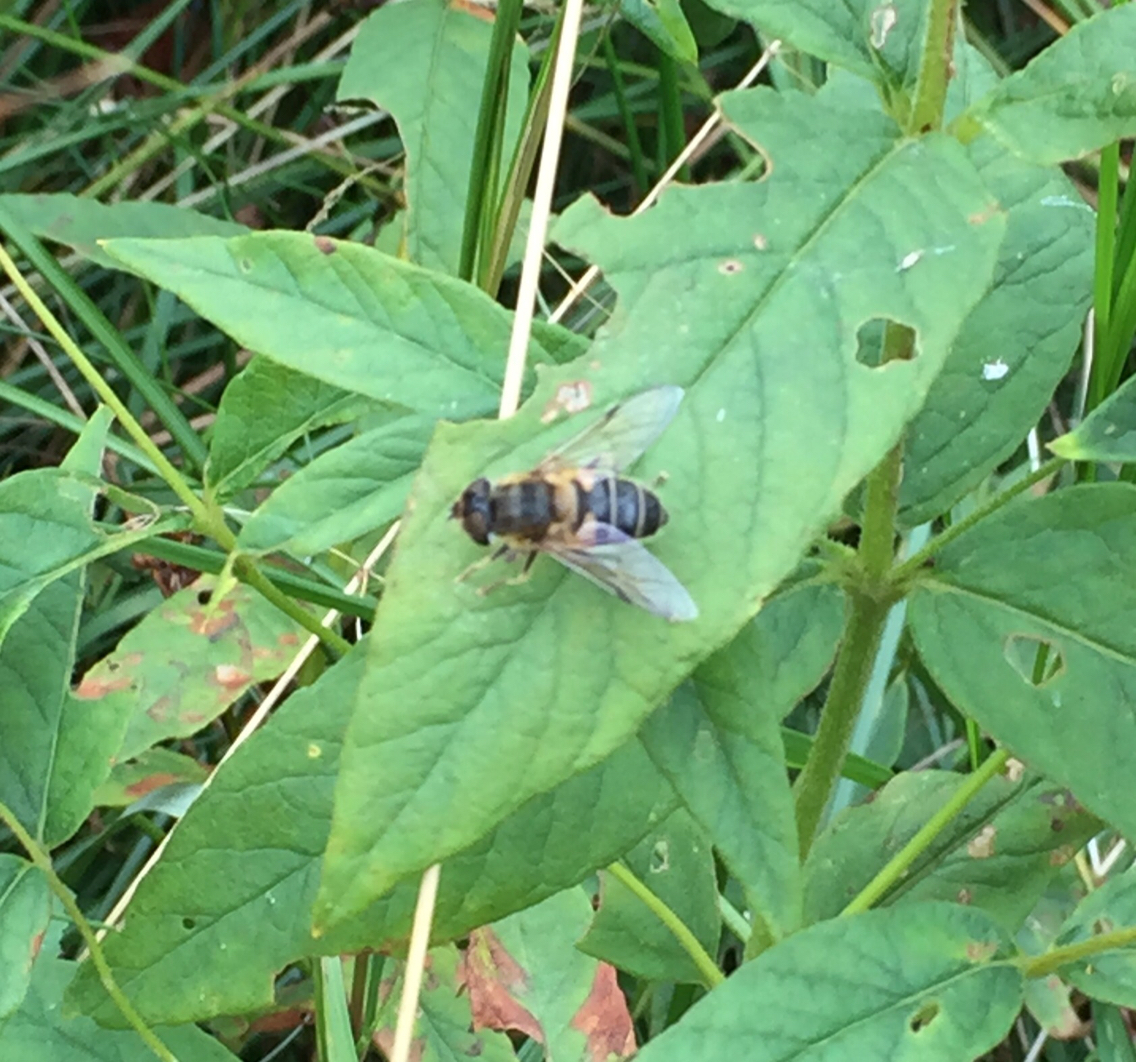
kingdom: Animalia
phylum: Arthropoda
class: Insecta
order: Diptera
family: Syrphidae
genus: Eristalis
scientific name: Eristalis pertinax
